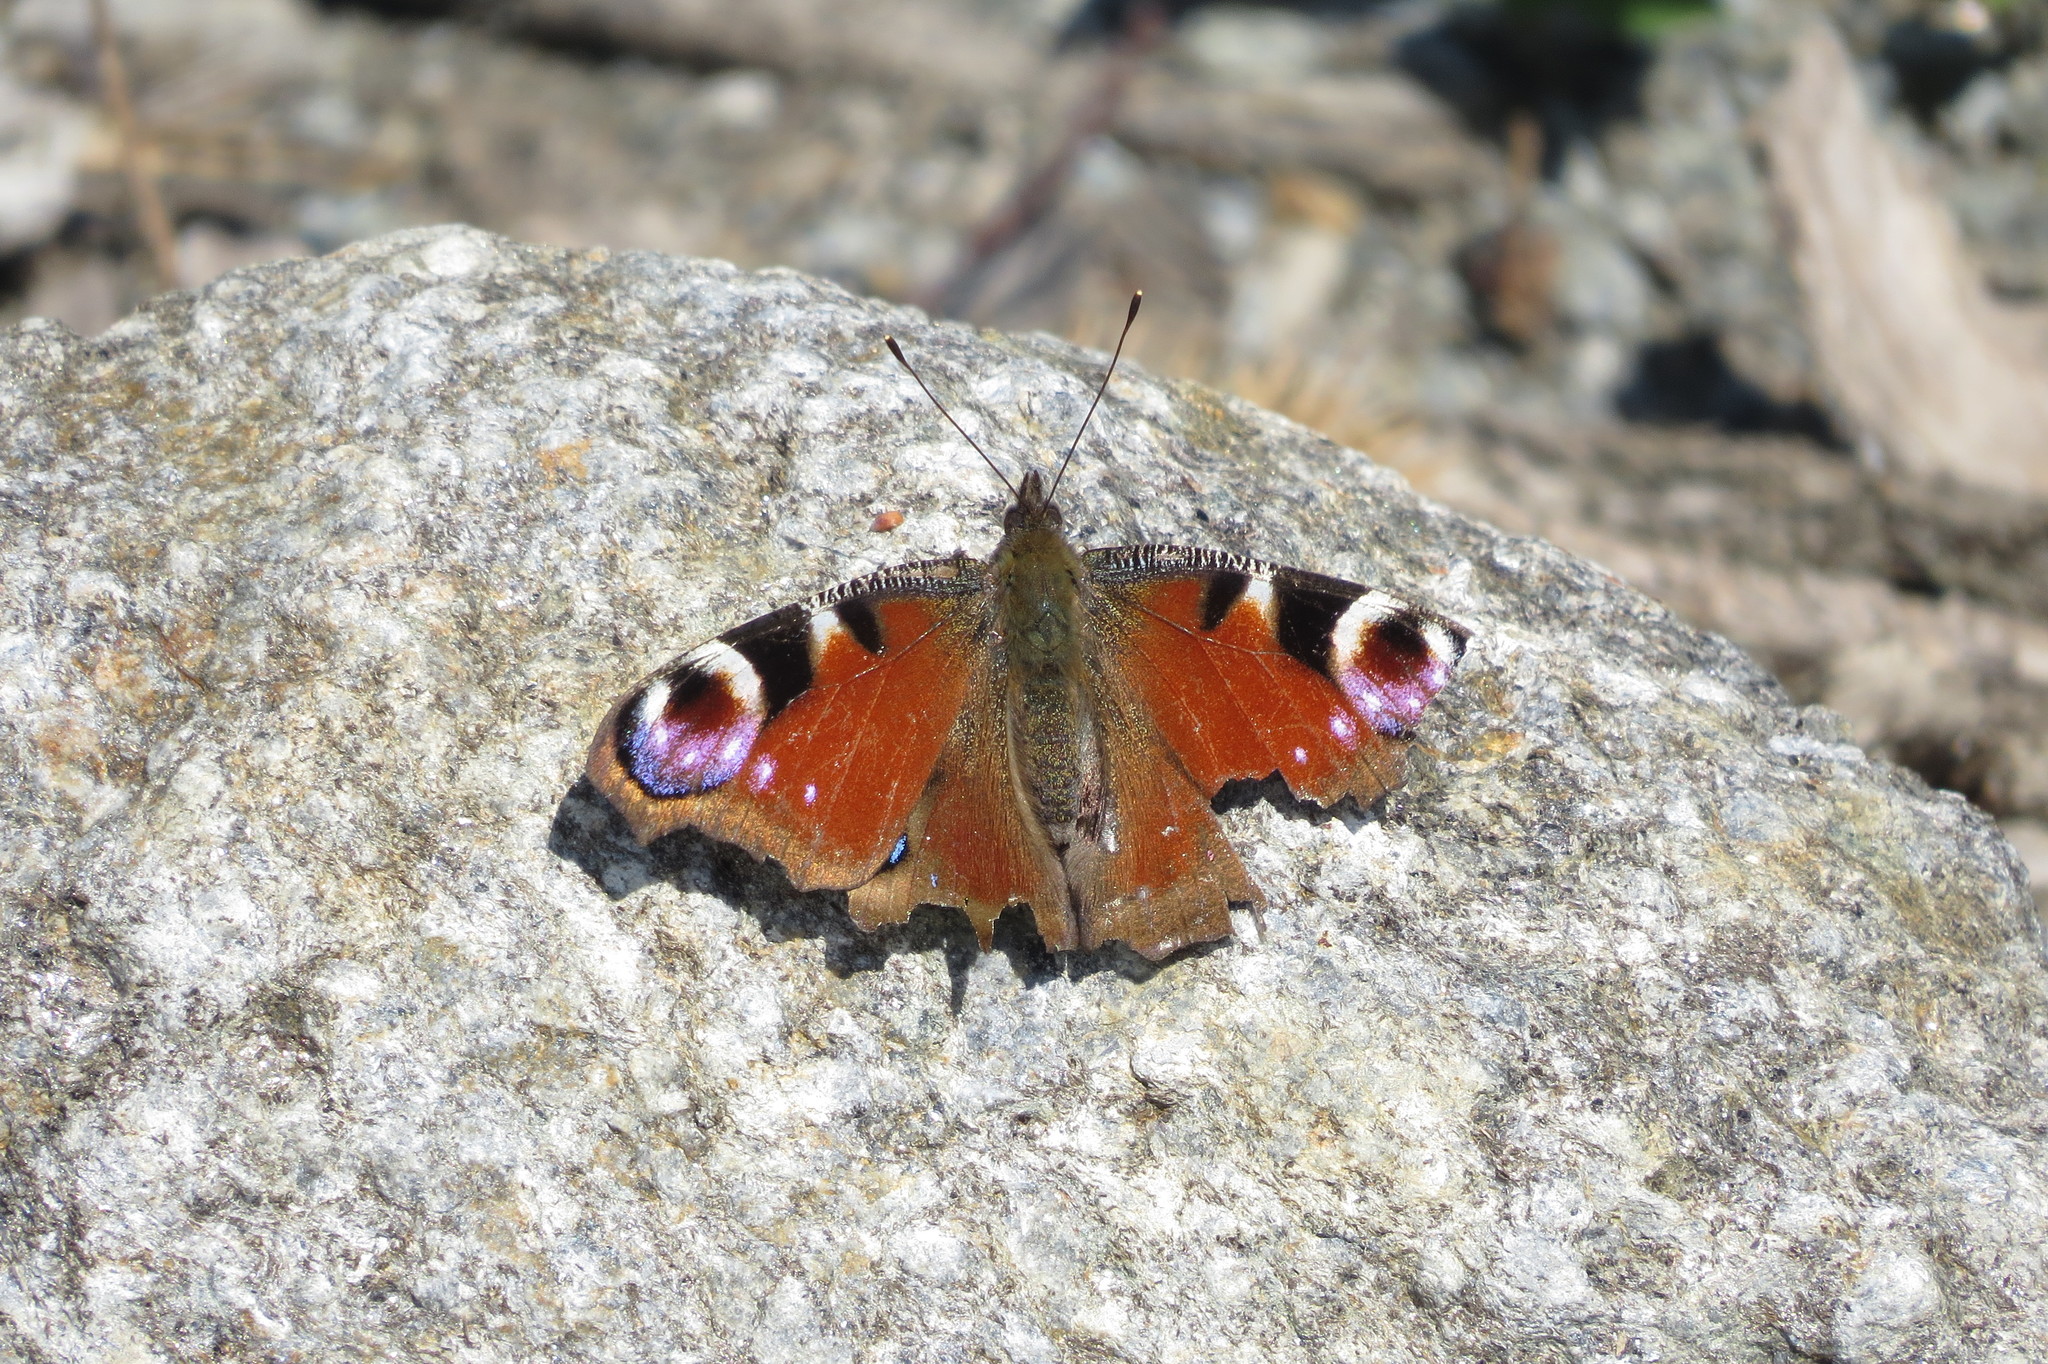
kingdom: Animalia
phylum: Arthropoda
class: Insecta
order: Lepidoptera
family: Nymphalidae
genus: Aglais
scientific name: Aglais io
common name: Peacock
